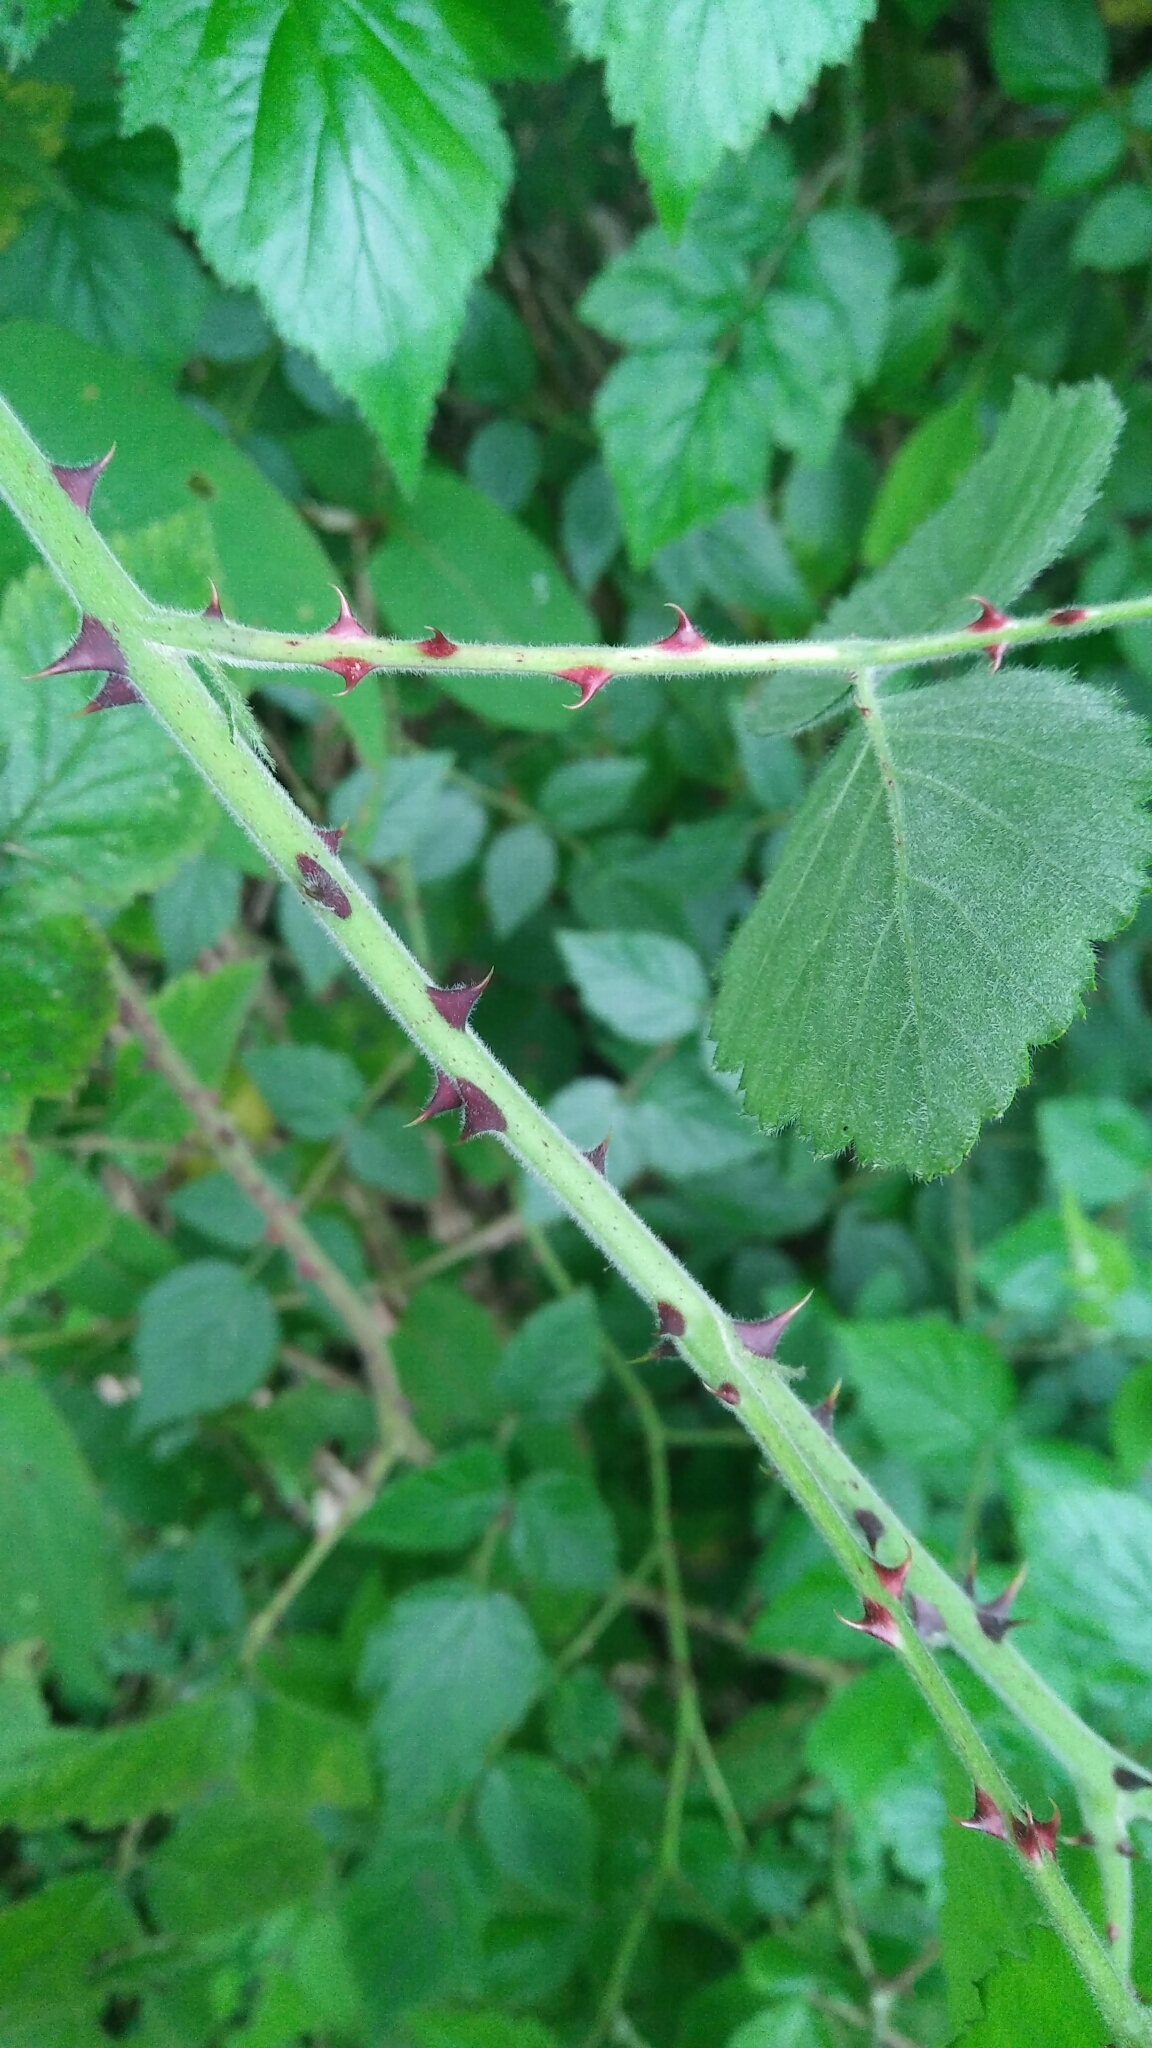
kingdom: Plantae
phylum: Tracheophyta
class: Magnoliopsida
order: Rosales
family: Rosaceae
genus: Rubus
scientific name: Rubus parviaraliifolius
